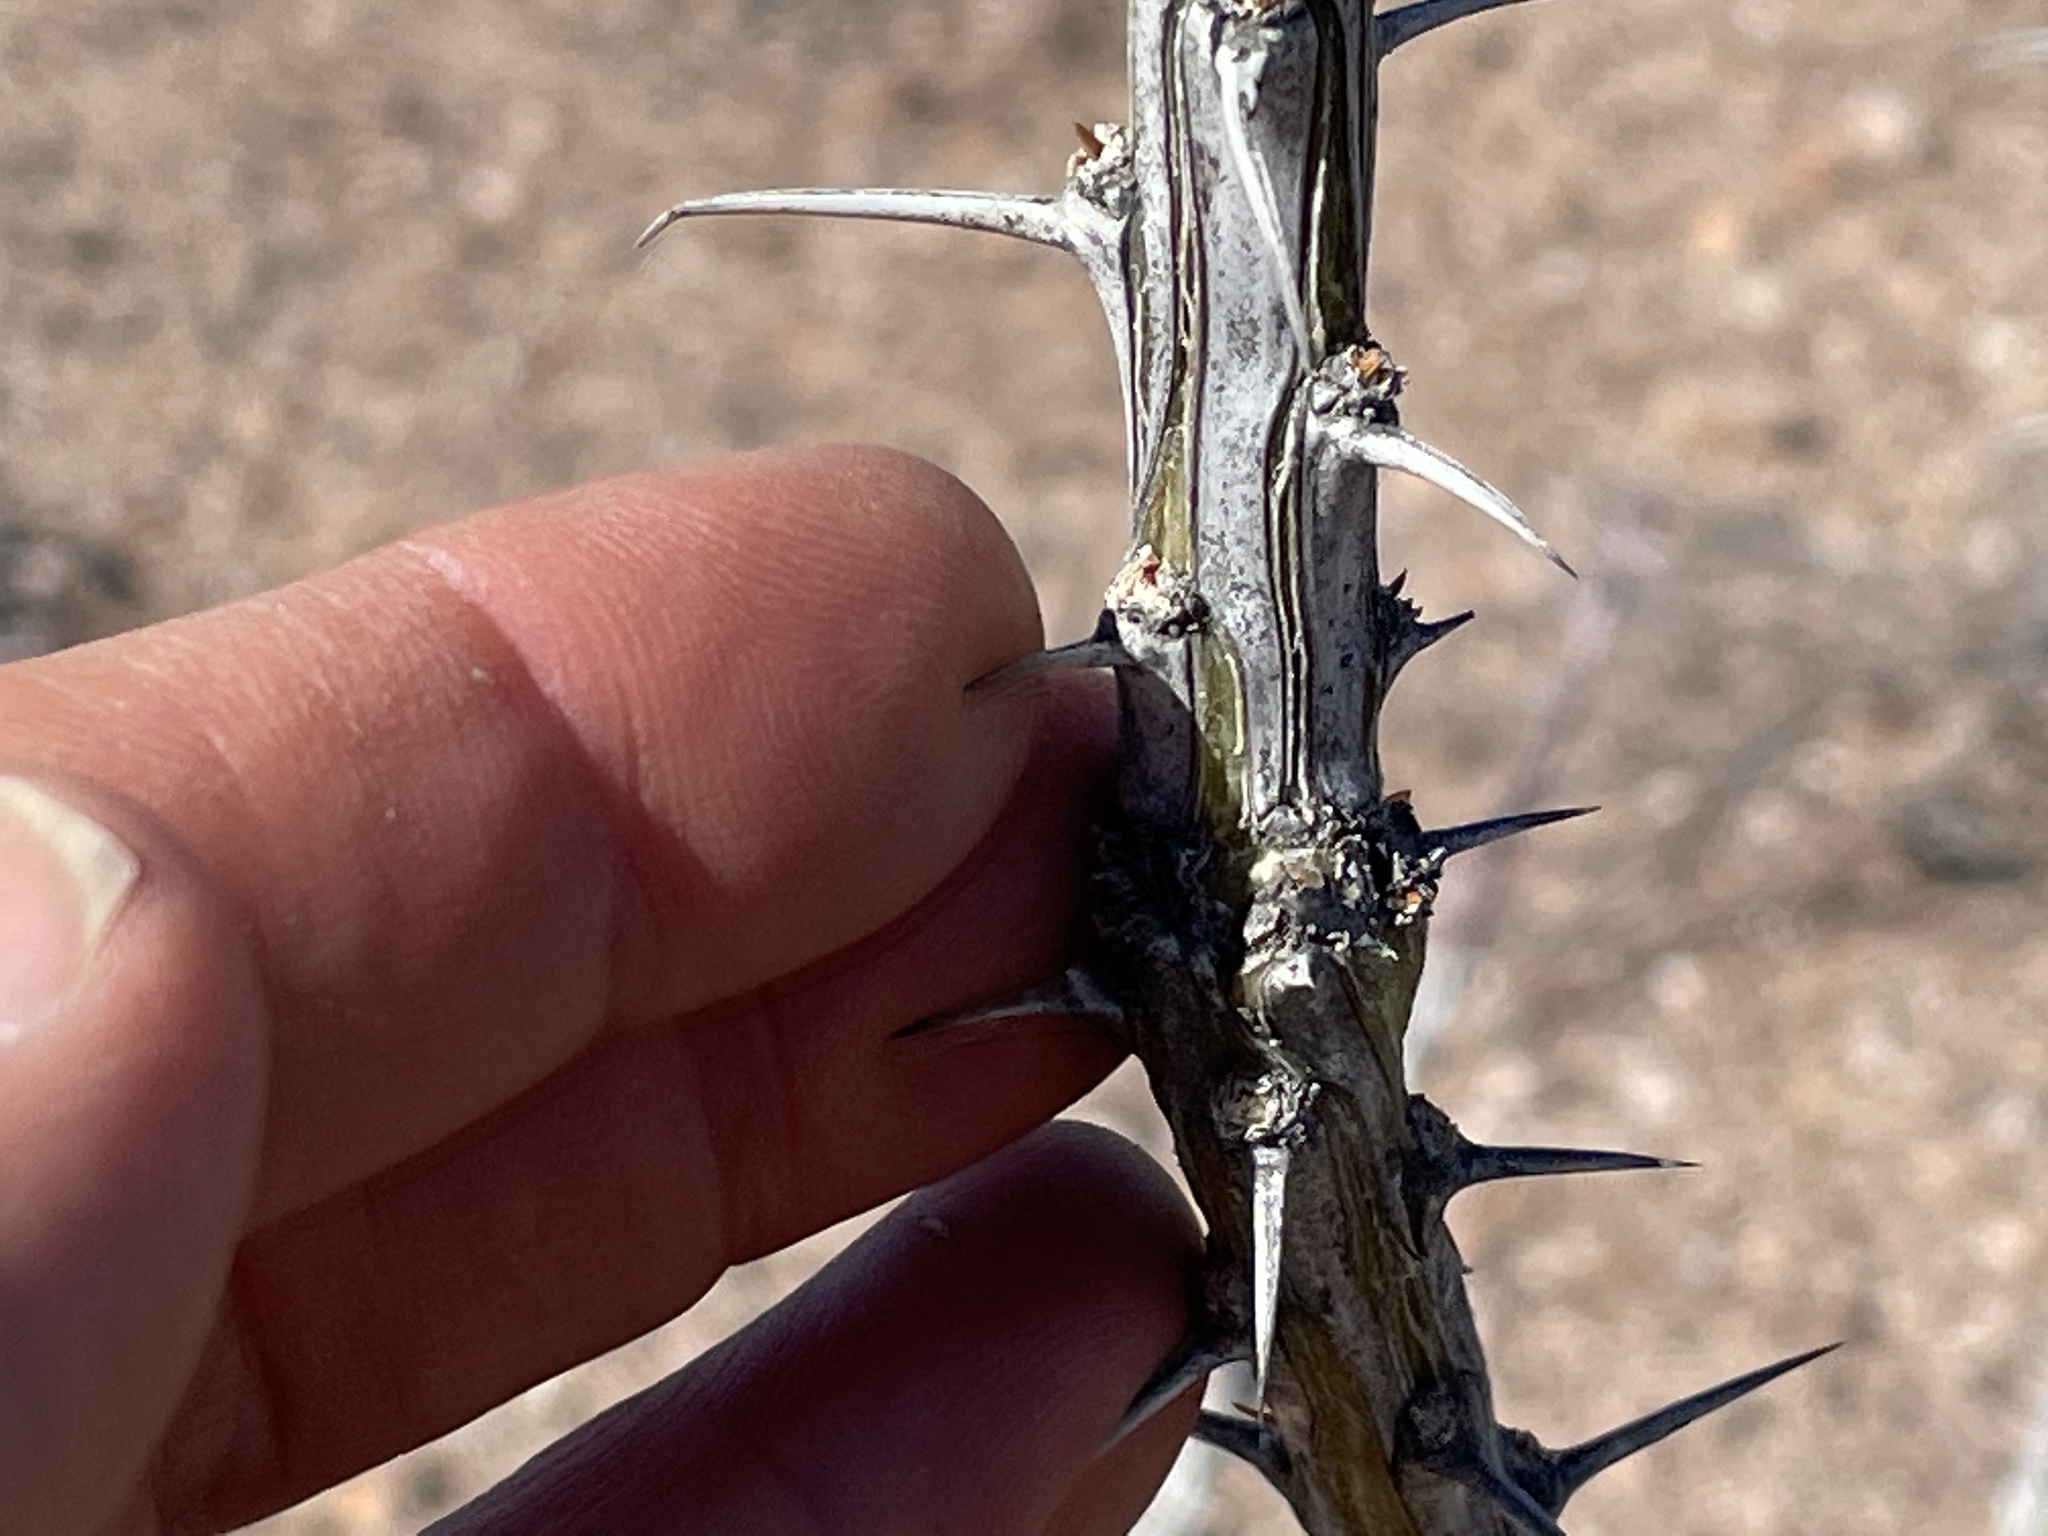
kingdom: Plantae
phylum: Tracheophyta
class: Magnoliopsida
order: Ericales
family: Fouquieriaceae
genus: Fouquieria
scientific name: Fouquieria splendens
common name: Vine-cactus
